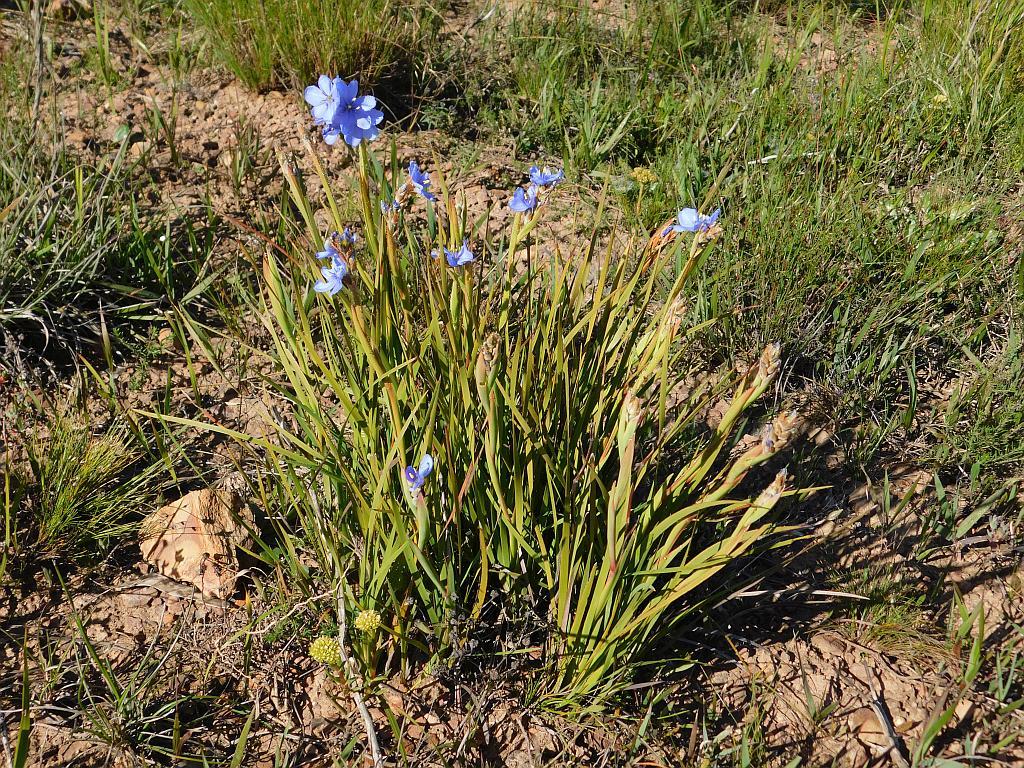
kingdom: Plantae
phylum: Tracheophyta
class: Liliopsida
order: Asparagales
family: Iridaceae
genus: Aristea
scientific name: Aristea spiralis
